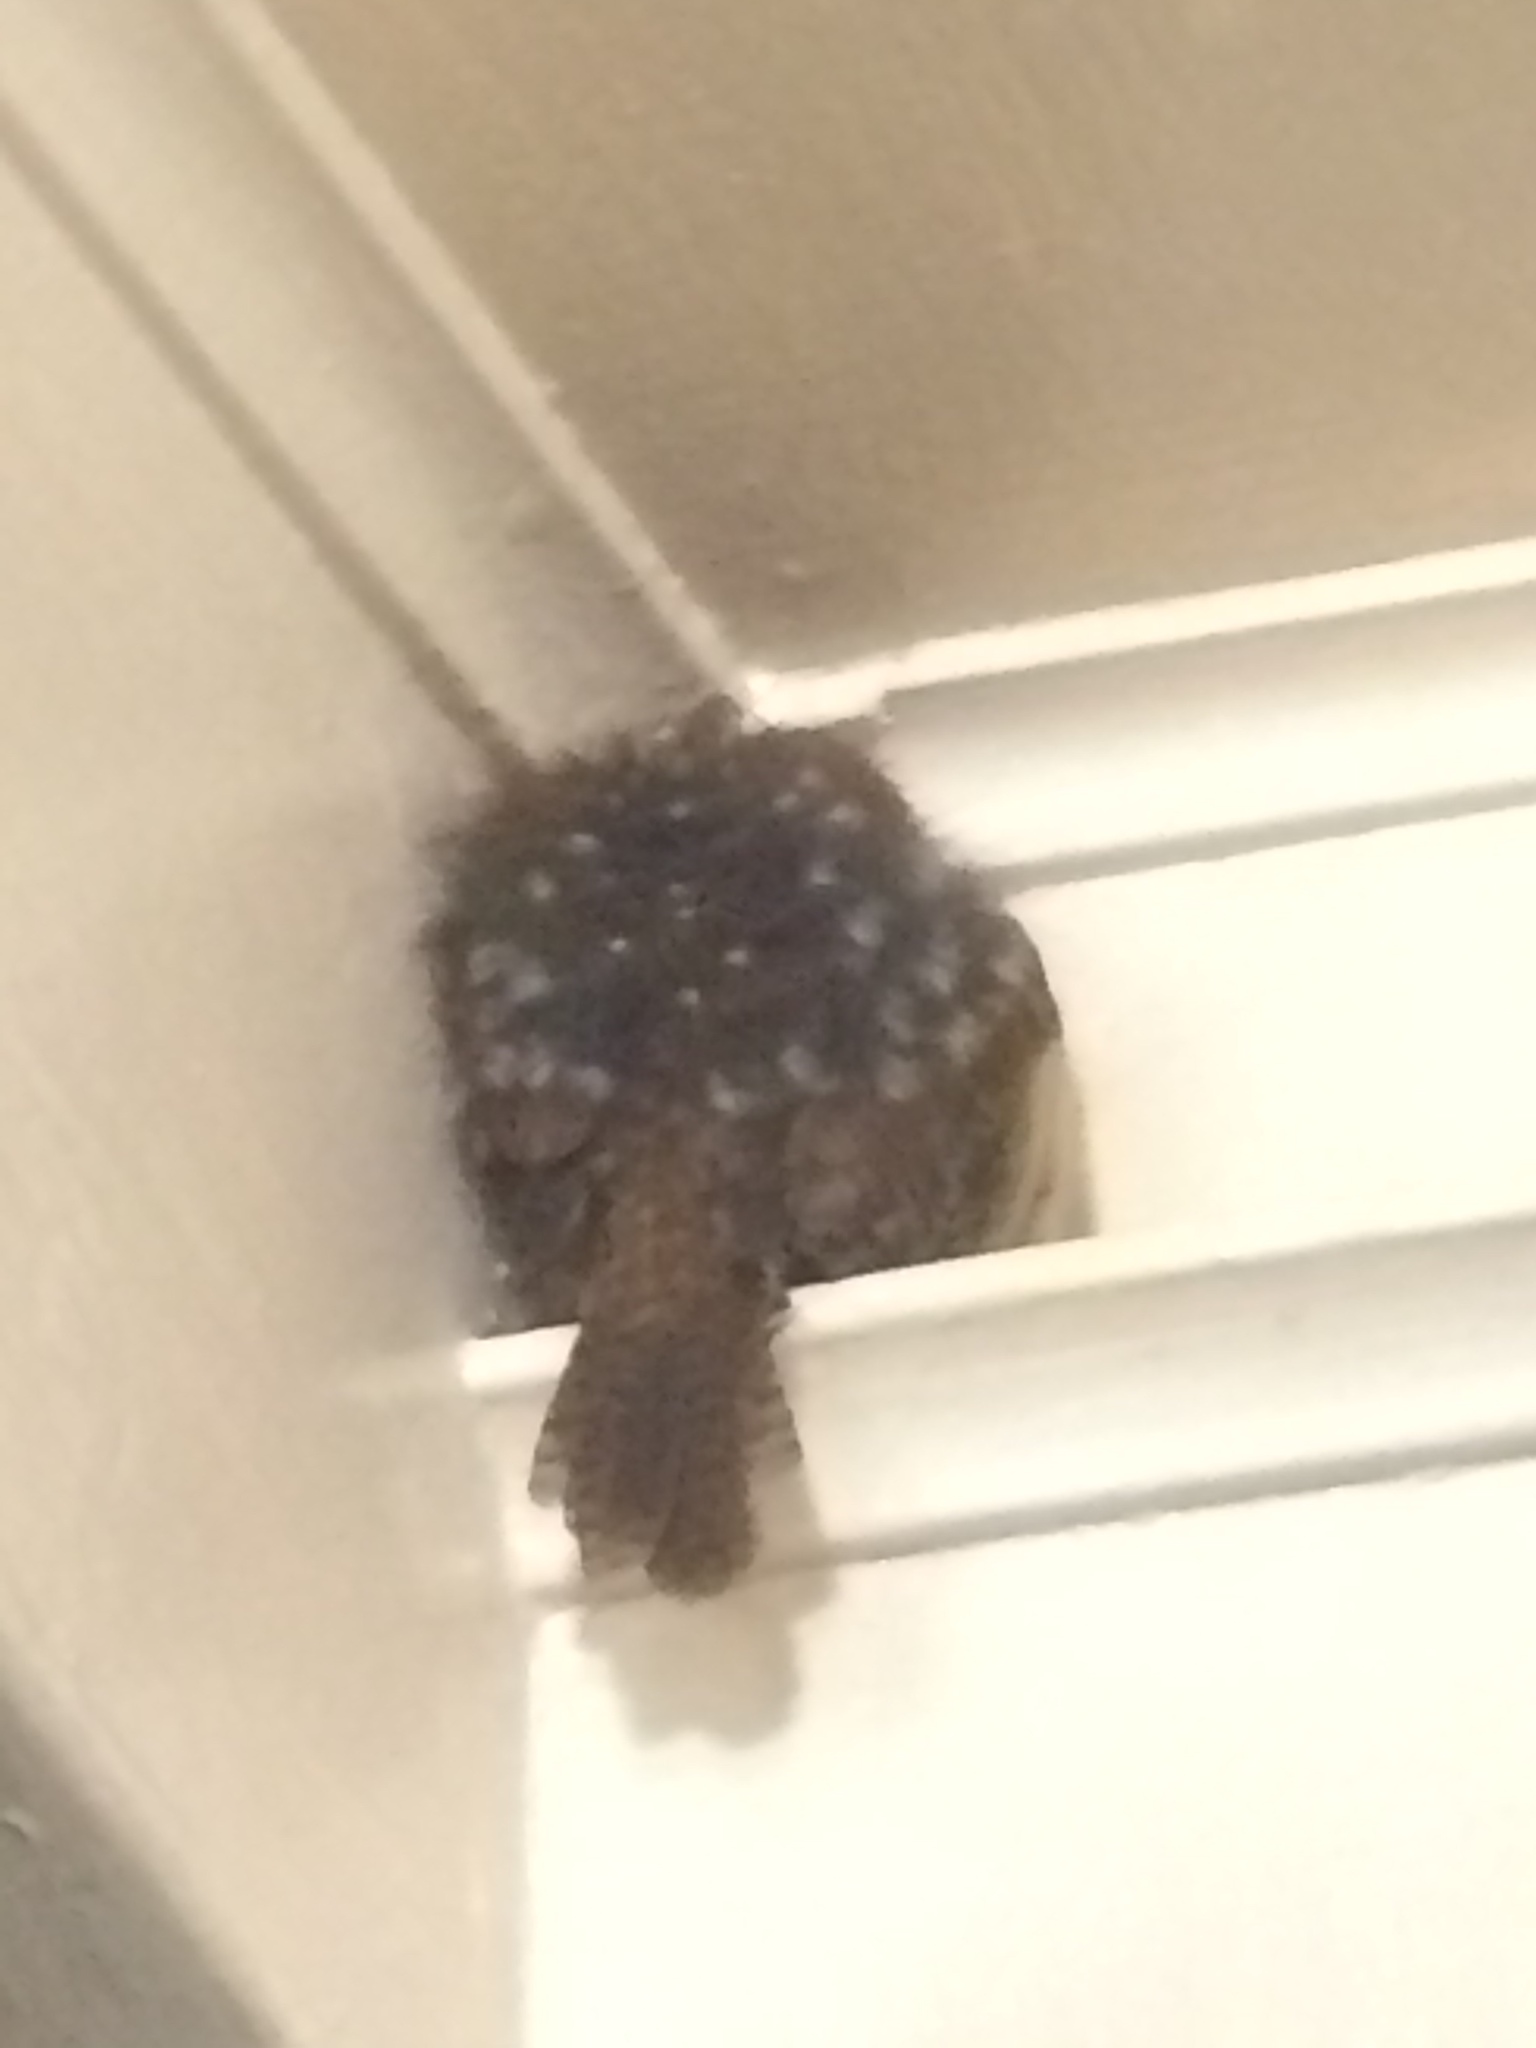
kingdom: Animalia
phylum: Chordata
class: Aves
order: Passeriformes
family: Troglodytidae
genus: Thryothorus
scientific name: Thryothorus ludovicianus
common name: Carolina wren
